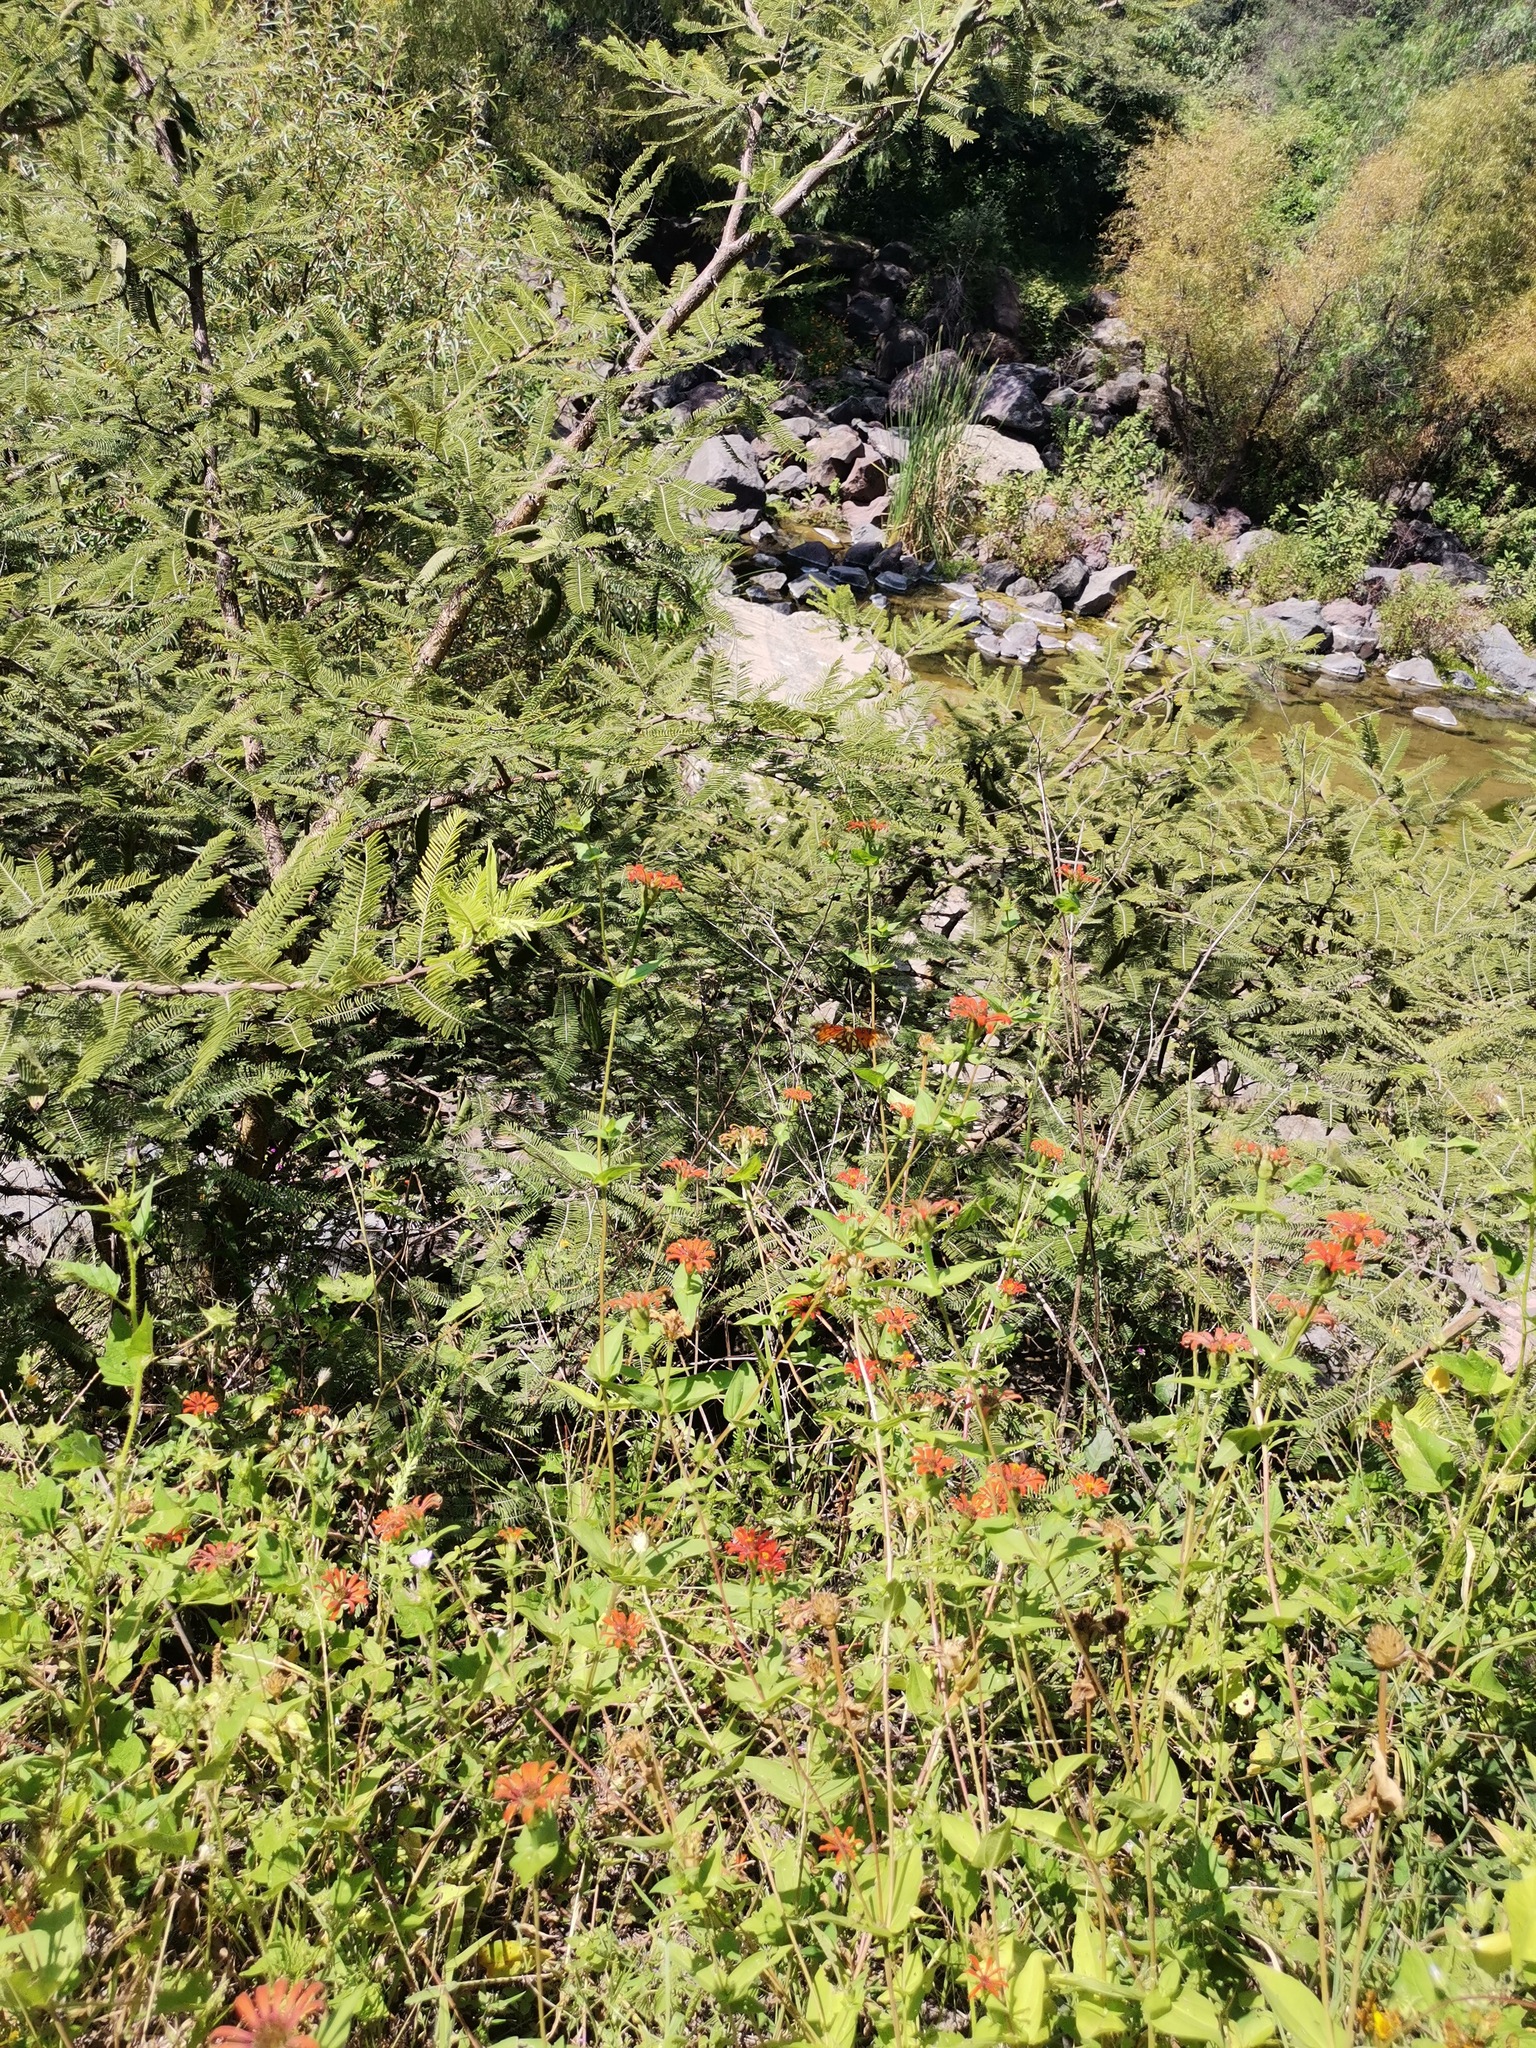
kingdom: Plantae
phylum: Tracheophyta
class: Magnoliopsida
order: Asterales
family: Asteraceae
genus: Zinnia
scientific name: Zinnia peruviana
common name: Peruvian zinnia
